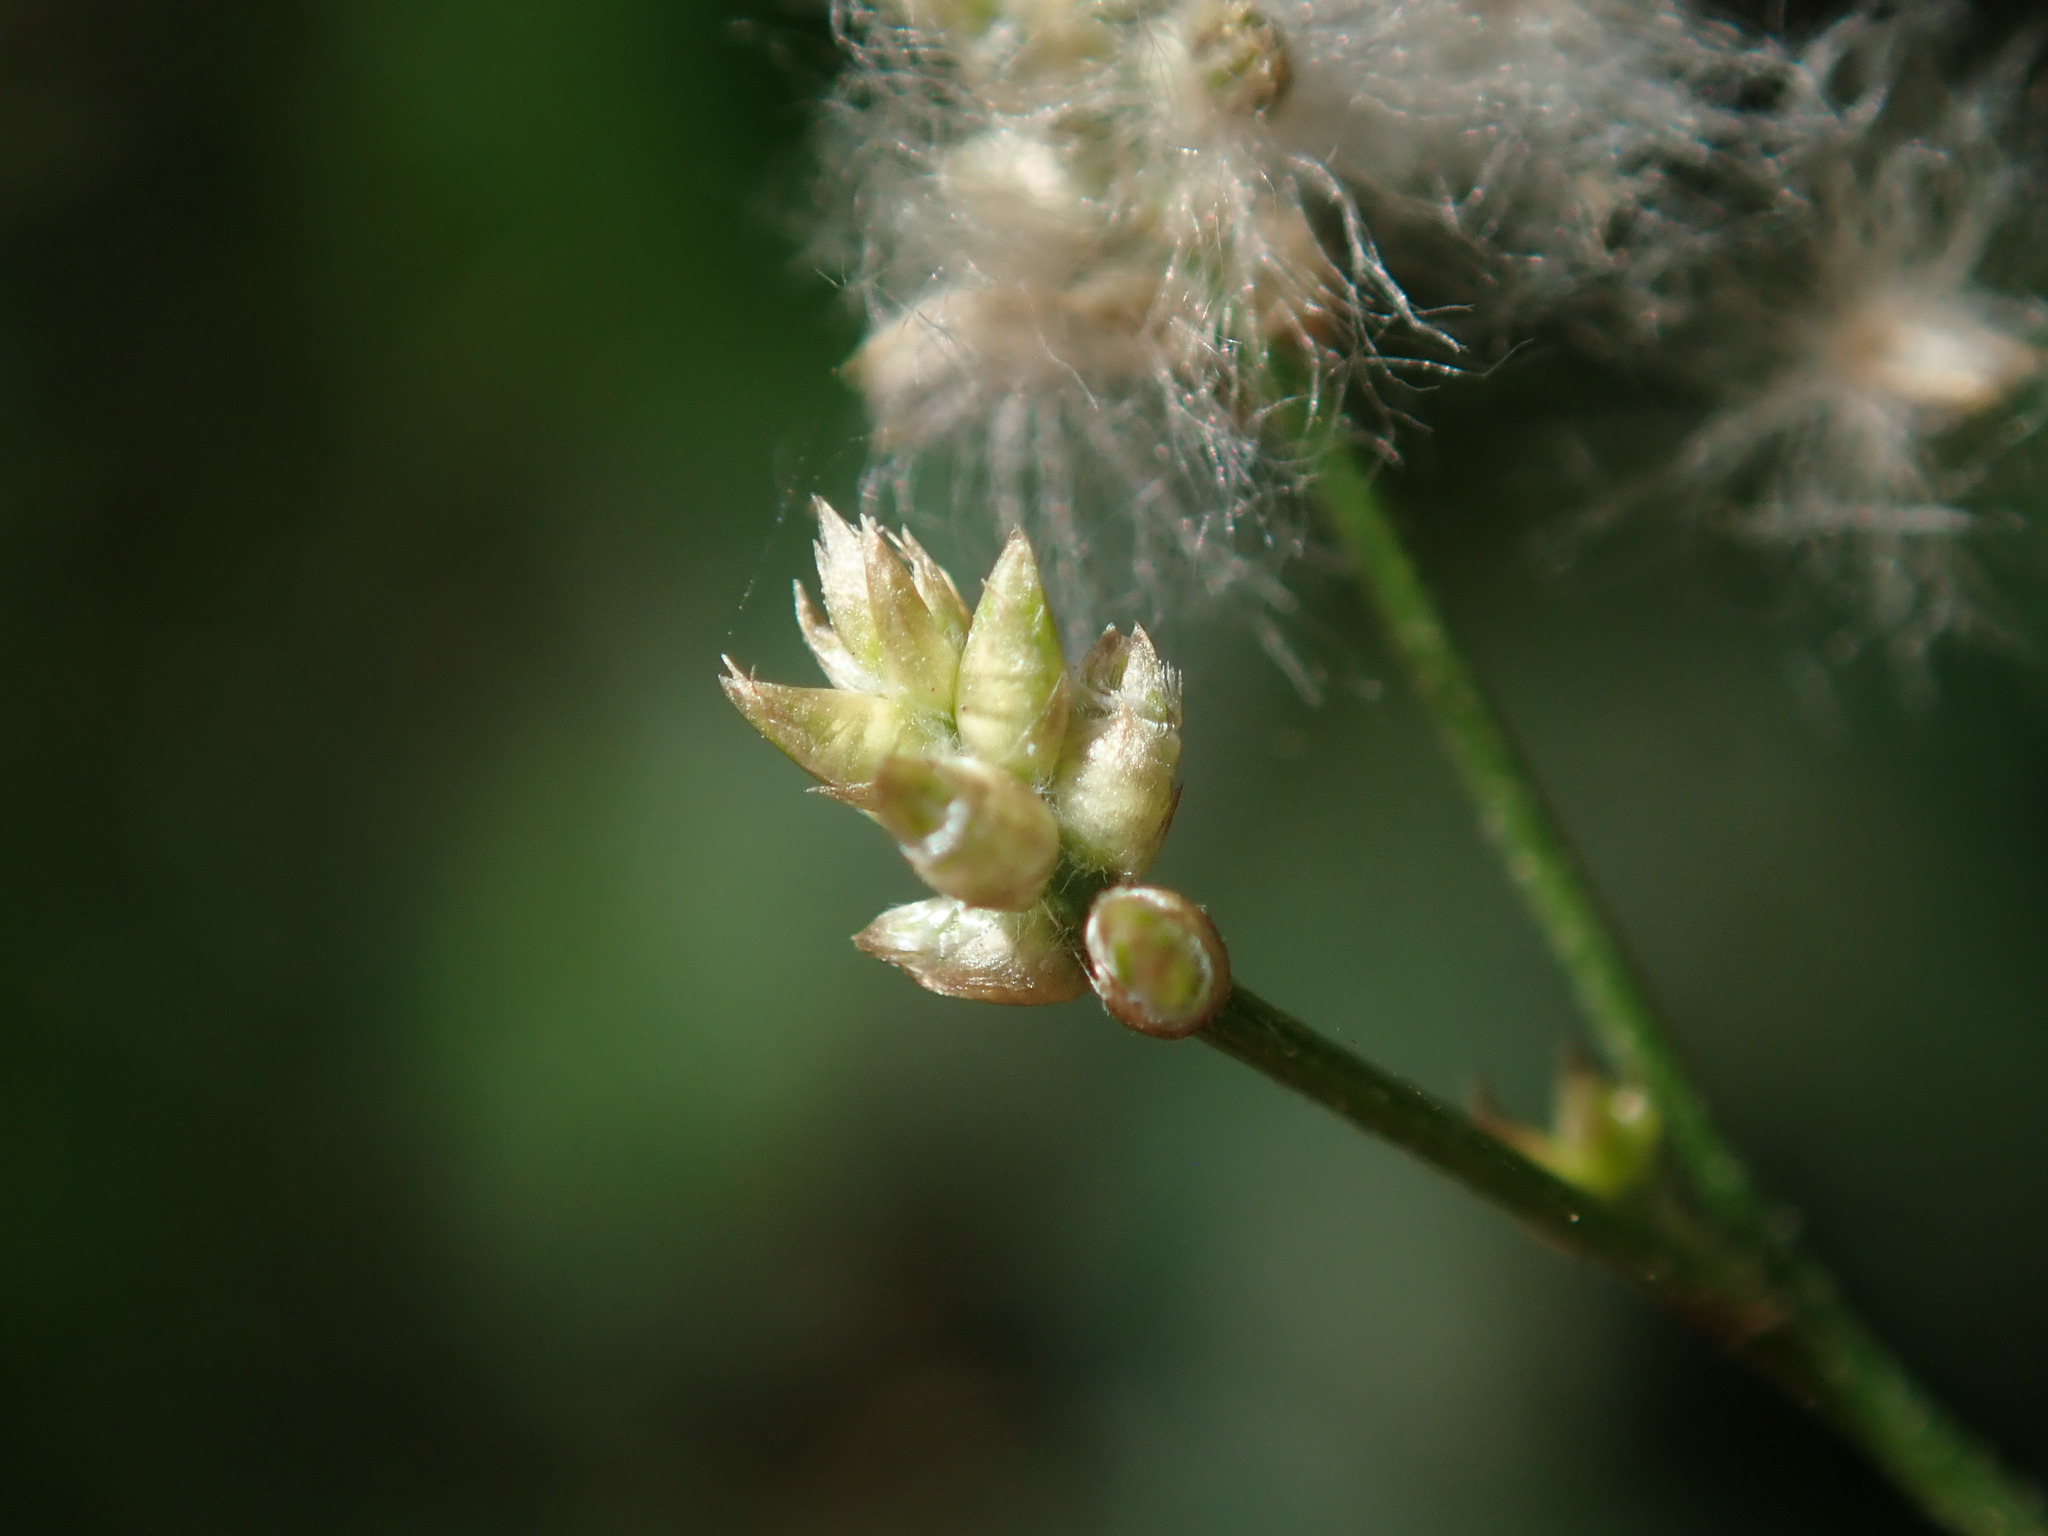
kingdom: Plantae
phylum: Tracheophyta
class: Magnoliopsida
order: Caryophyllales
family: Amaranthaceae
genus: Iresine
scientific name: Iresine angustifolia
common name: White snowplant
